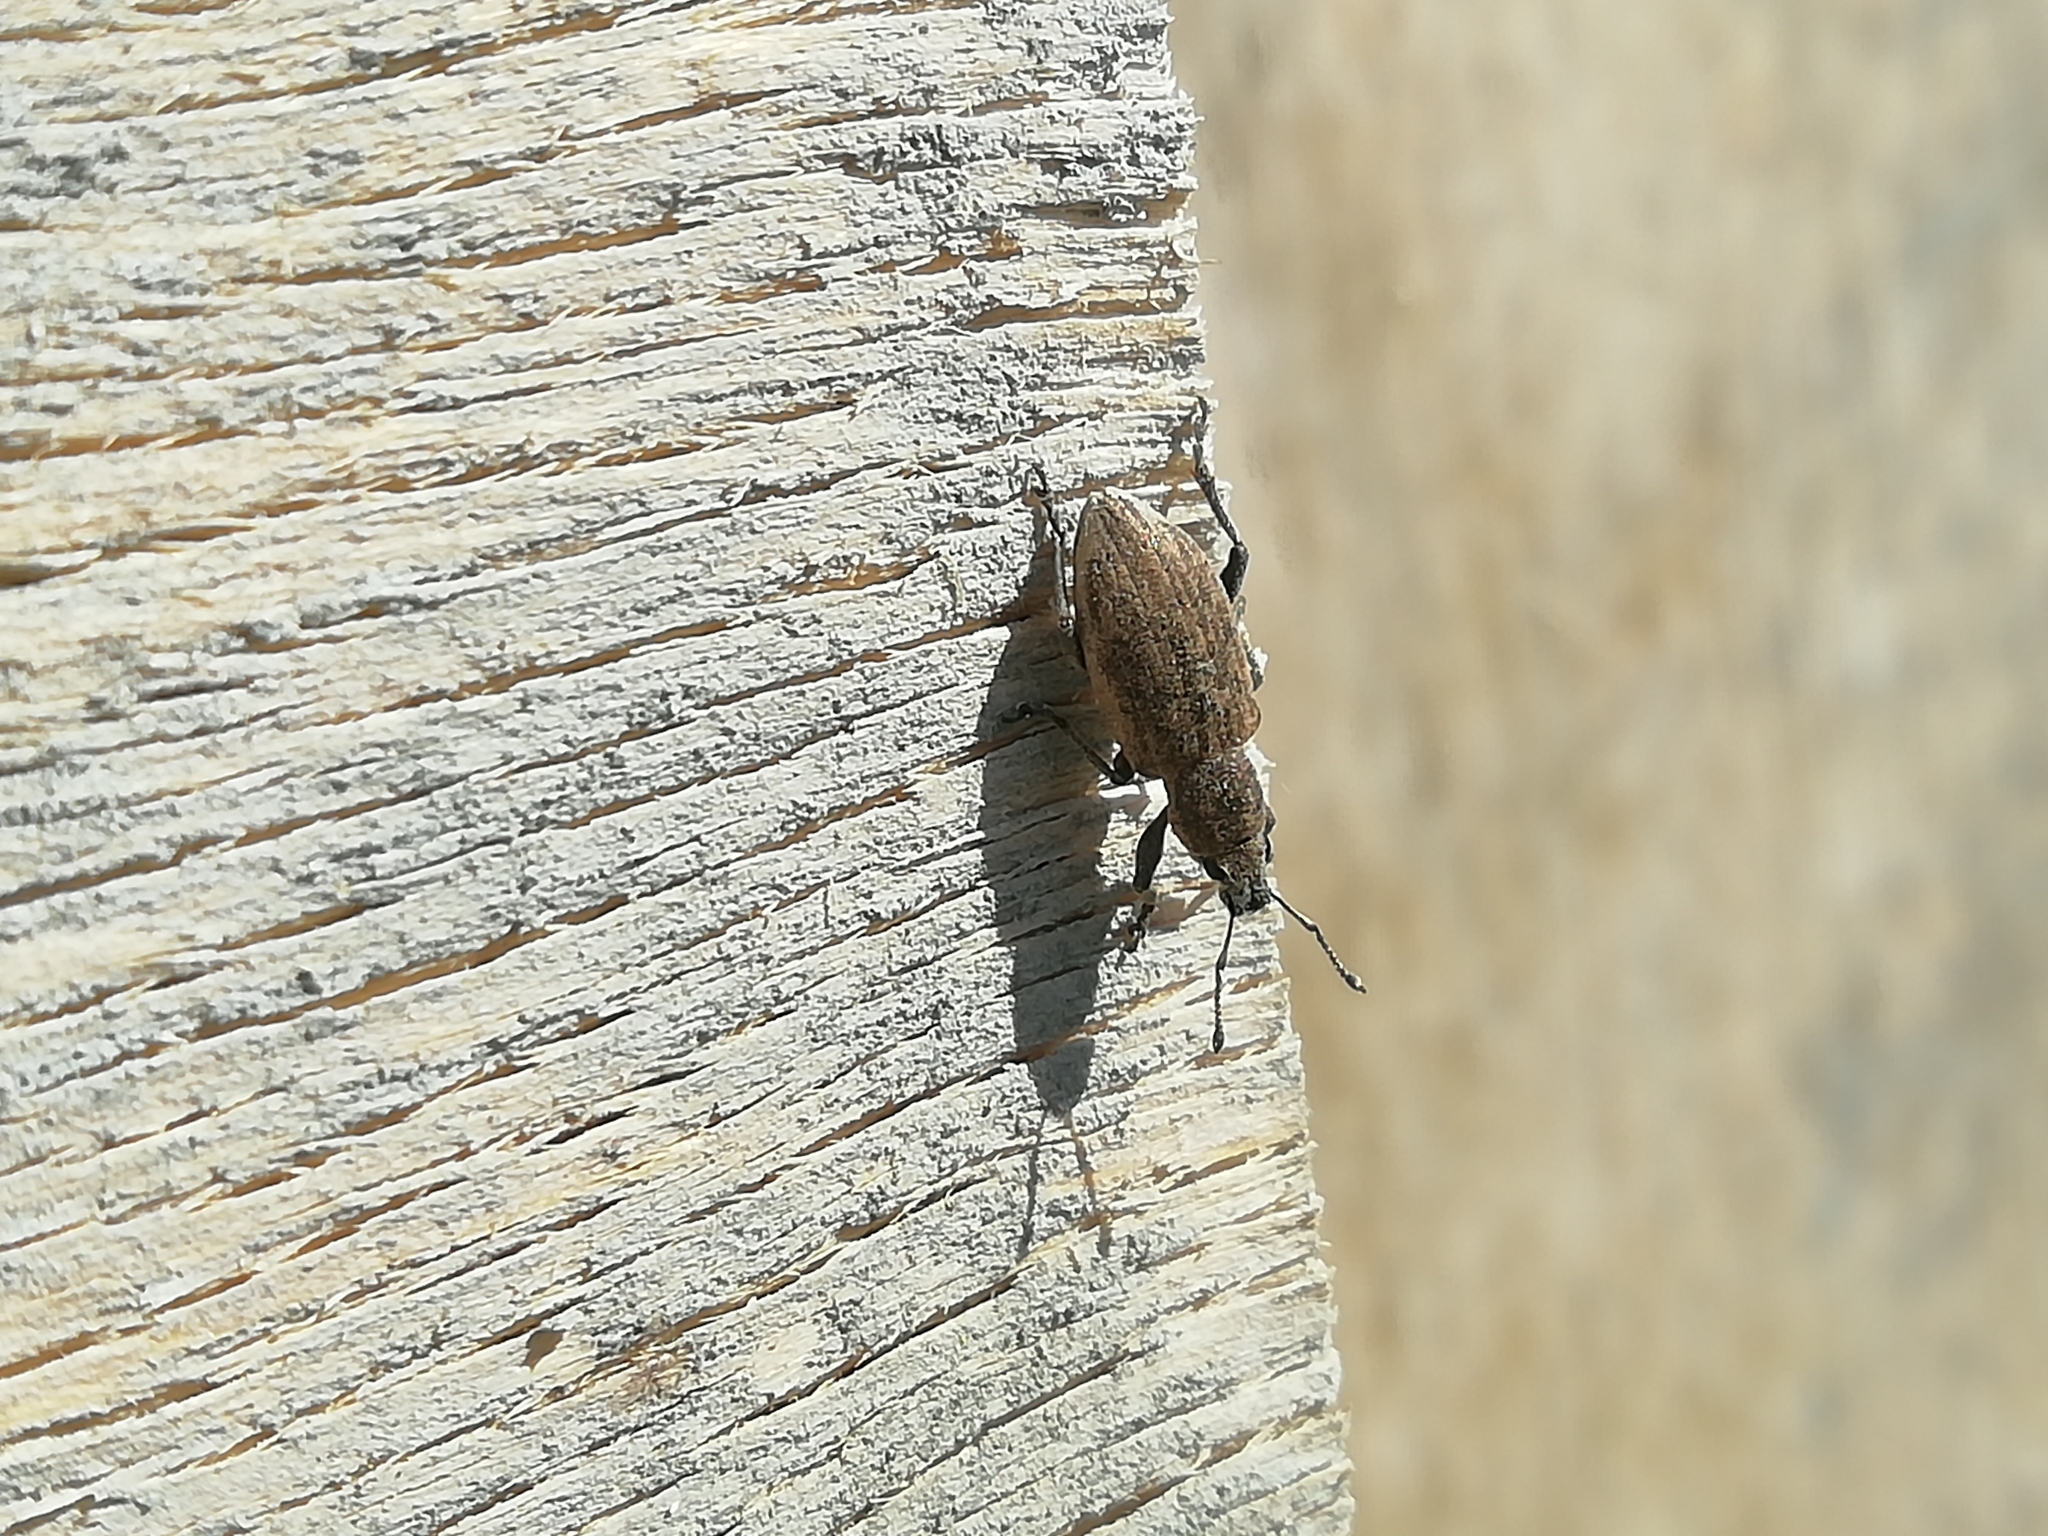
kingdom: Animalia
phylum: Arthropoda
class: Insecta
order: Coleoptera
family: Curculionidae
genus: Tanymecus
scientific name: Tanymecus palliatus
